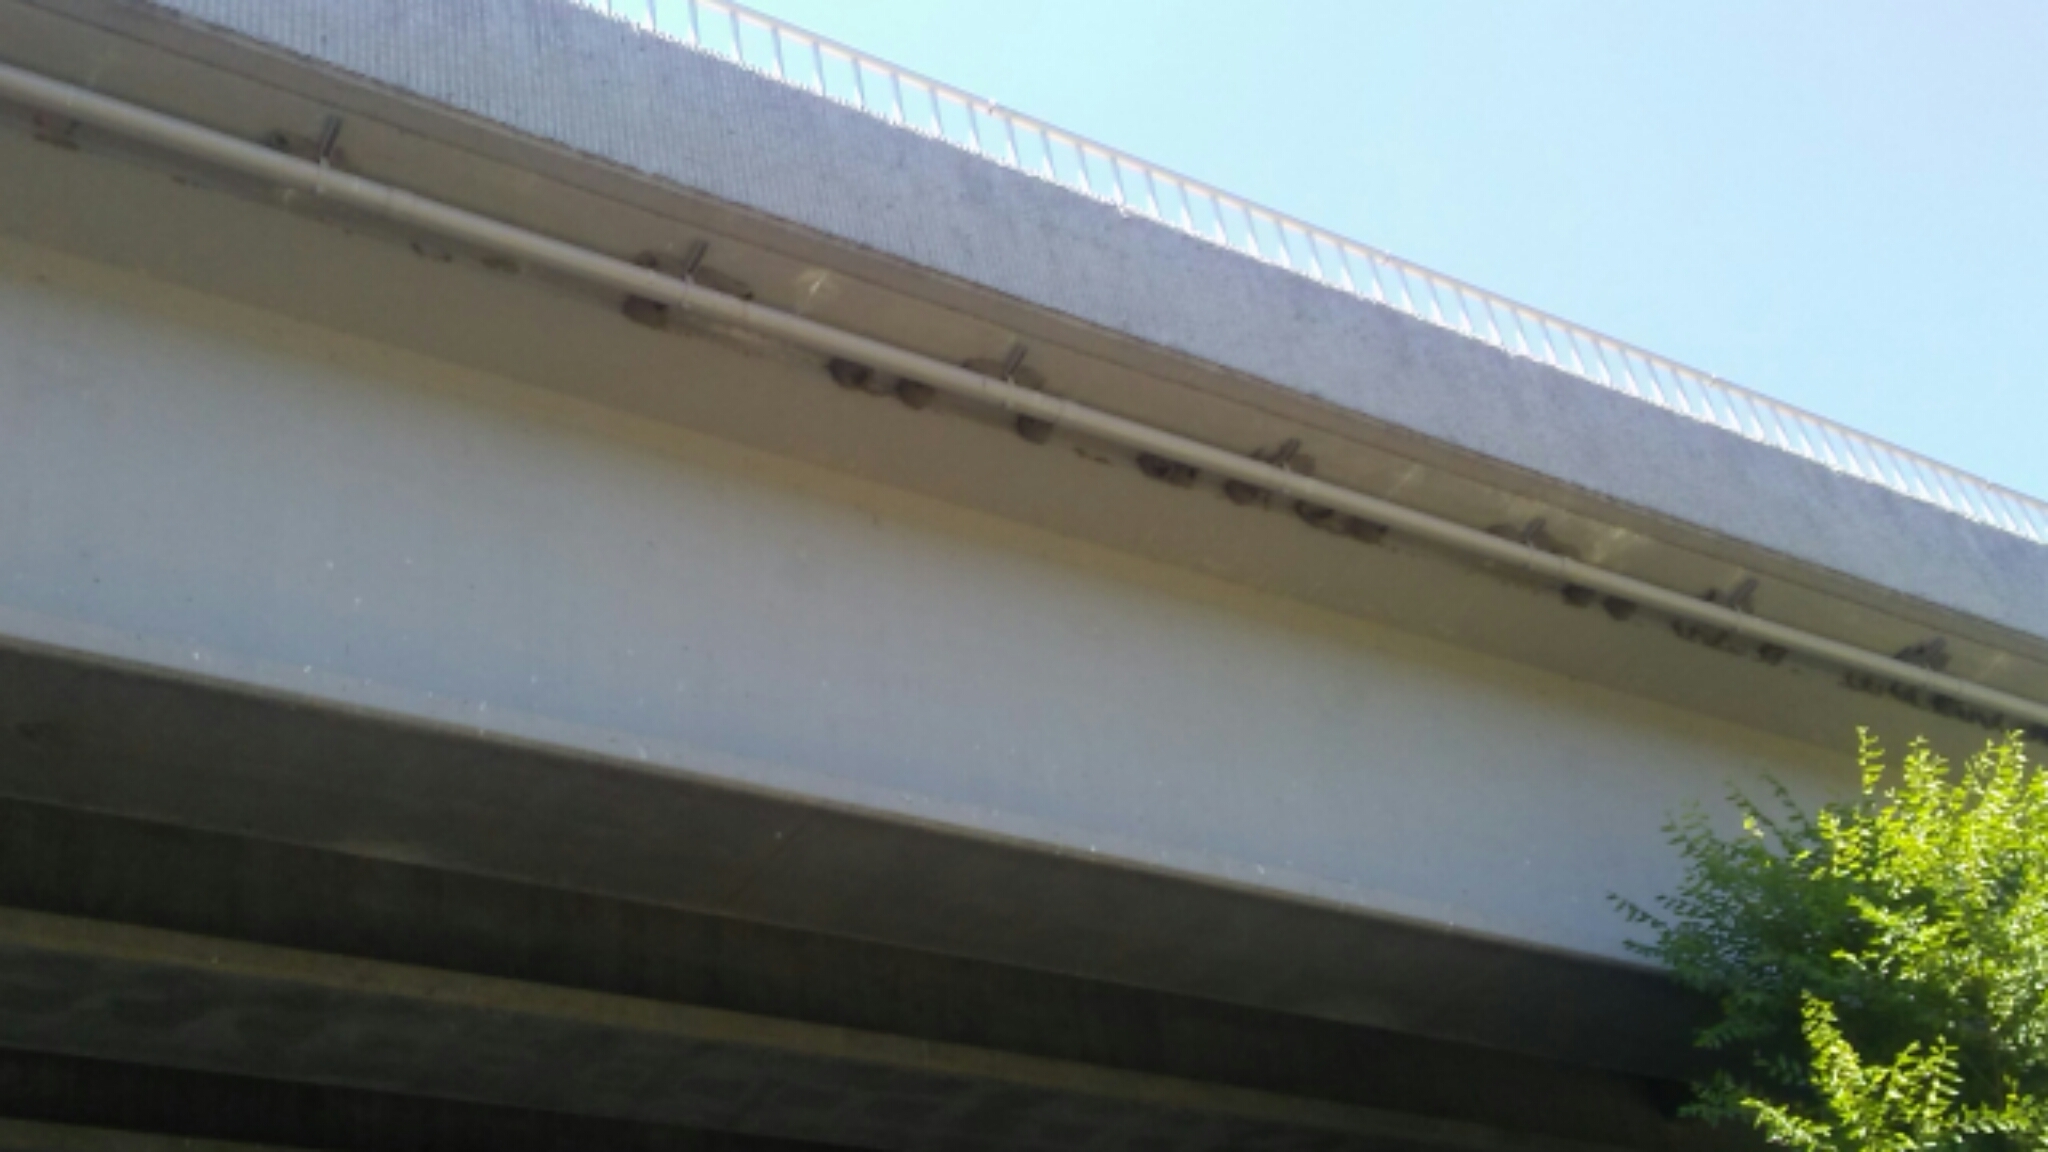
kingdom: Animalia
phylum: Chordata
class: Aves
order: Passeriformes
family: Hirundinidae
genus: Petrochelidon
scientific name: Petrochelidon pyrrhonota
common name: American cliff swallow
